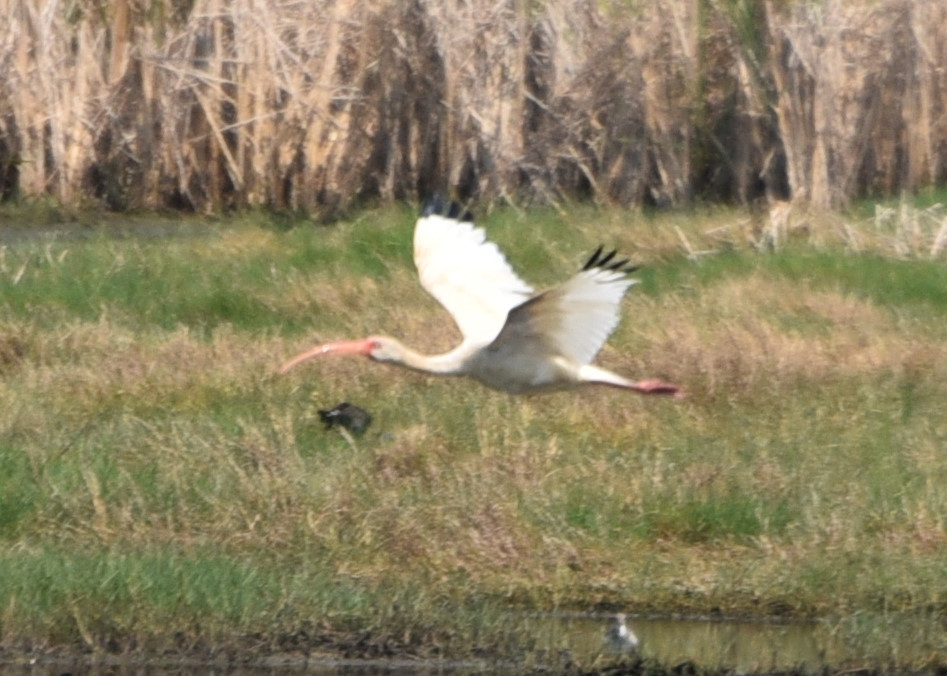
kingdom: Animalia
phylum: Chordata
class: Aves
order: Pelecaniformes
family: Threskiornithidae
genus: Eudocimus
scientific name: Eudocimus albus
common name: White ibis
